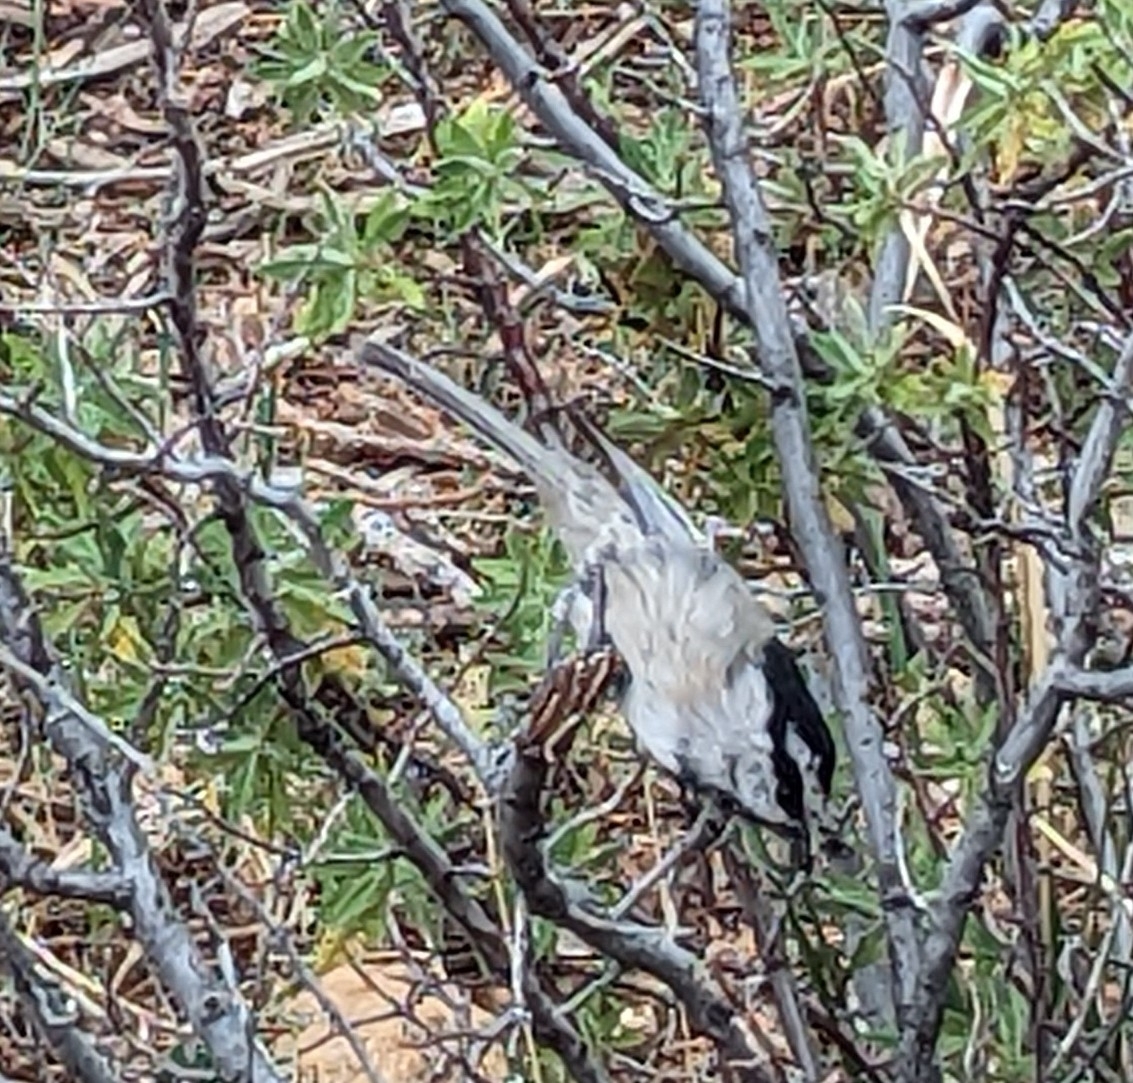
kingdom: Animalia
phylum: Chordata
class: Aves
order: Passeriformes
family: Paridae
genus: Poecile
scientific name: Poecile gambeli
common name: Mountain chickadee
